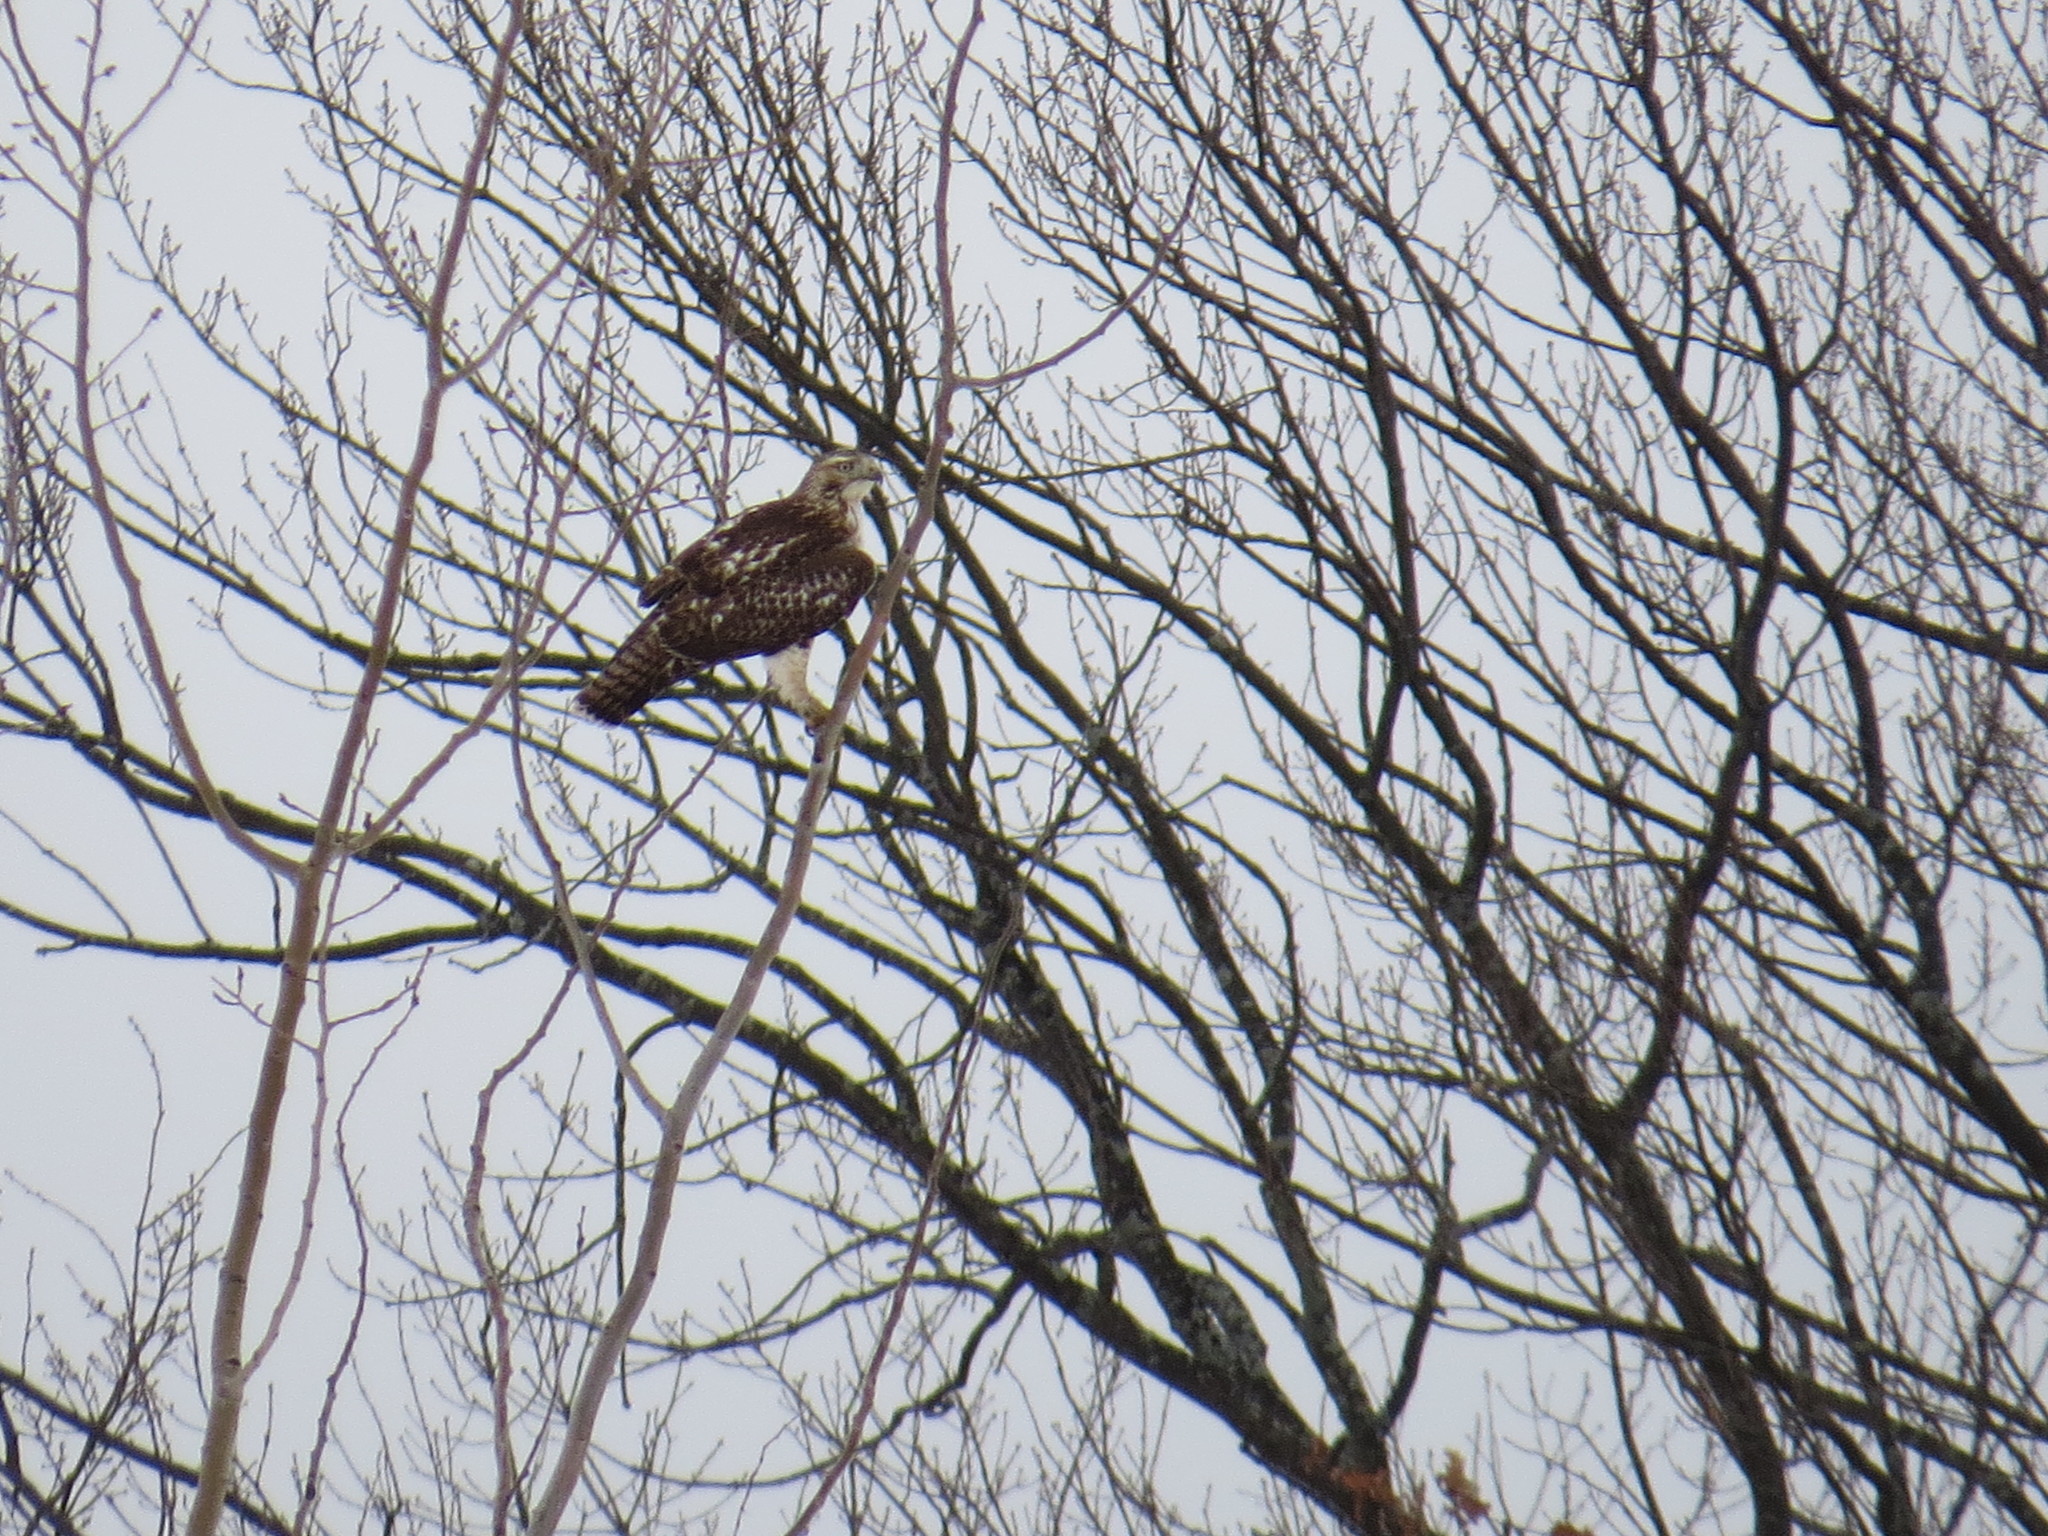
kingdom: Animalia
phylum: Chordata
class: Aves
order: Accipitriformes
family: Accipitridae
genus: Buteo
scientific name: Buteo jamaicensis
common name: Red-tailed hawk
